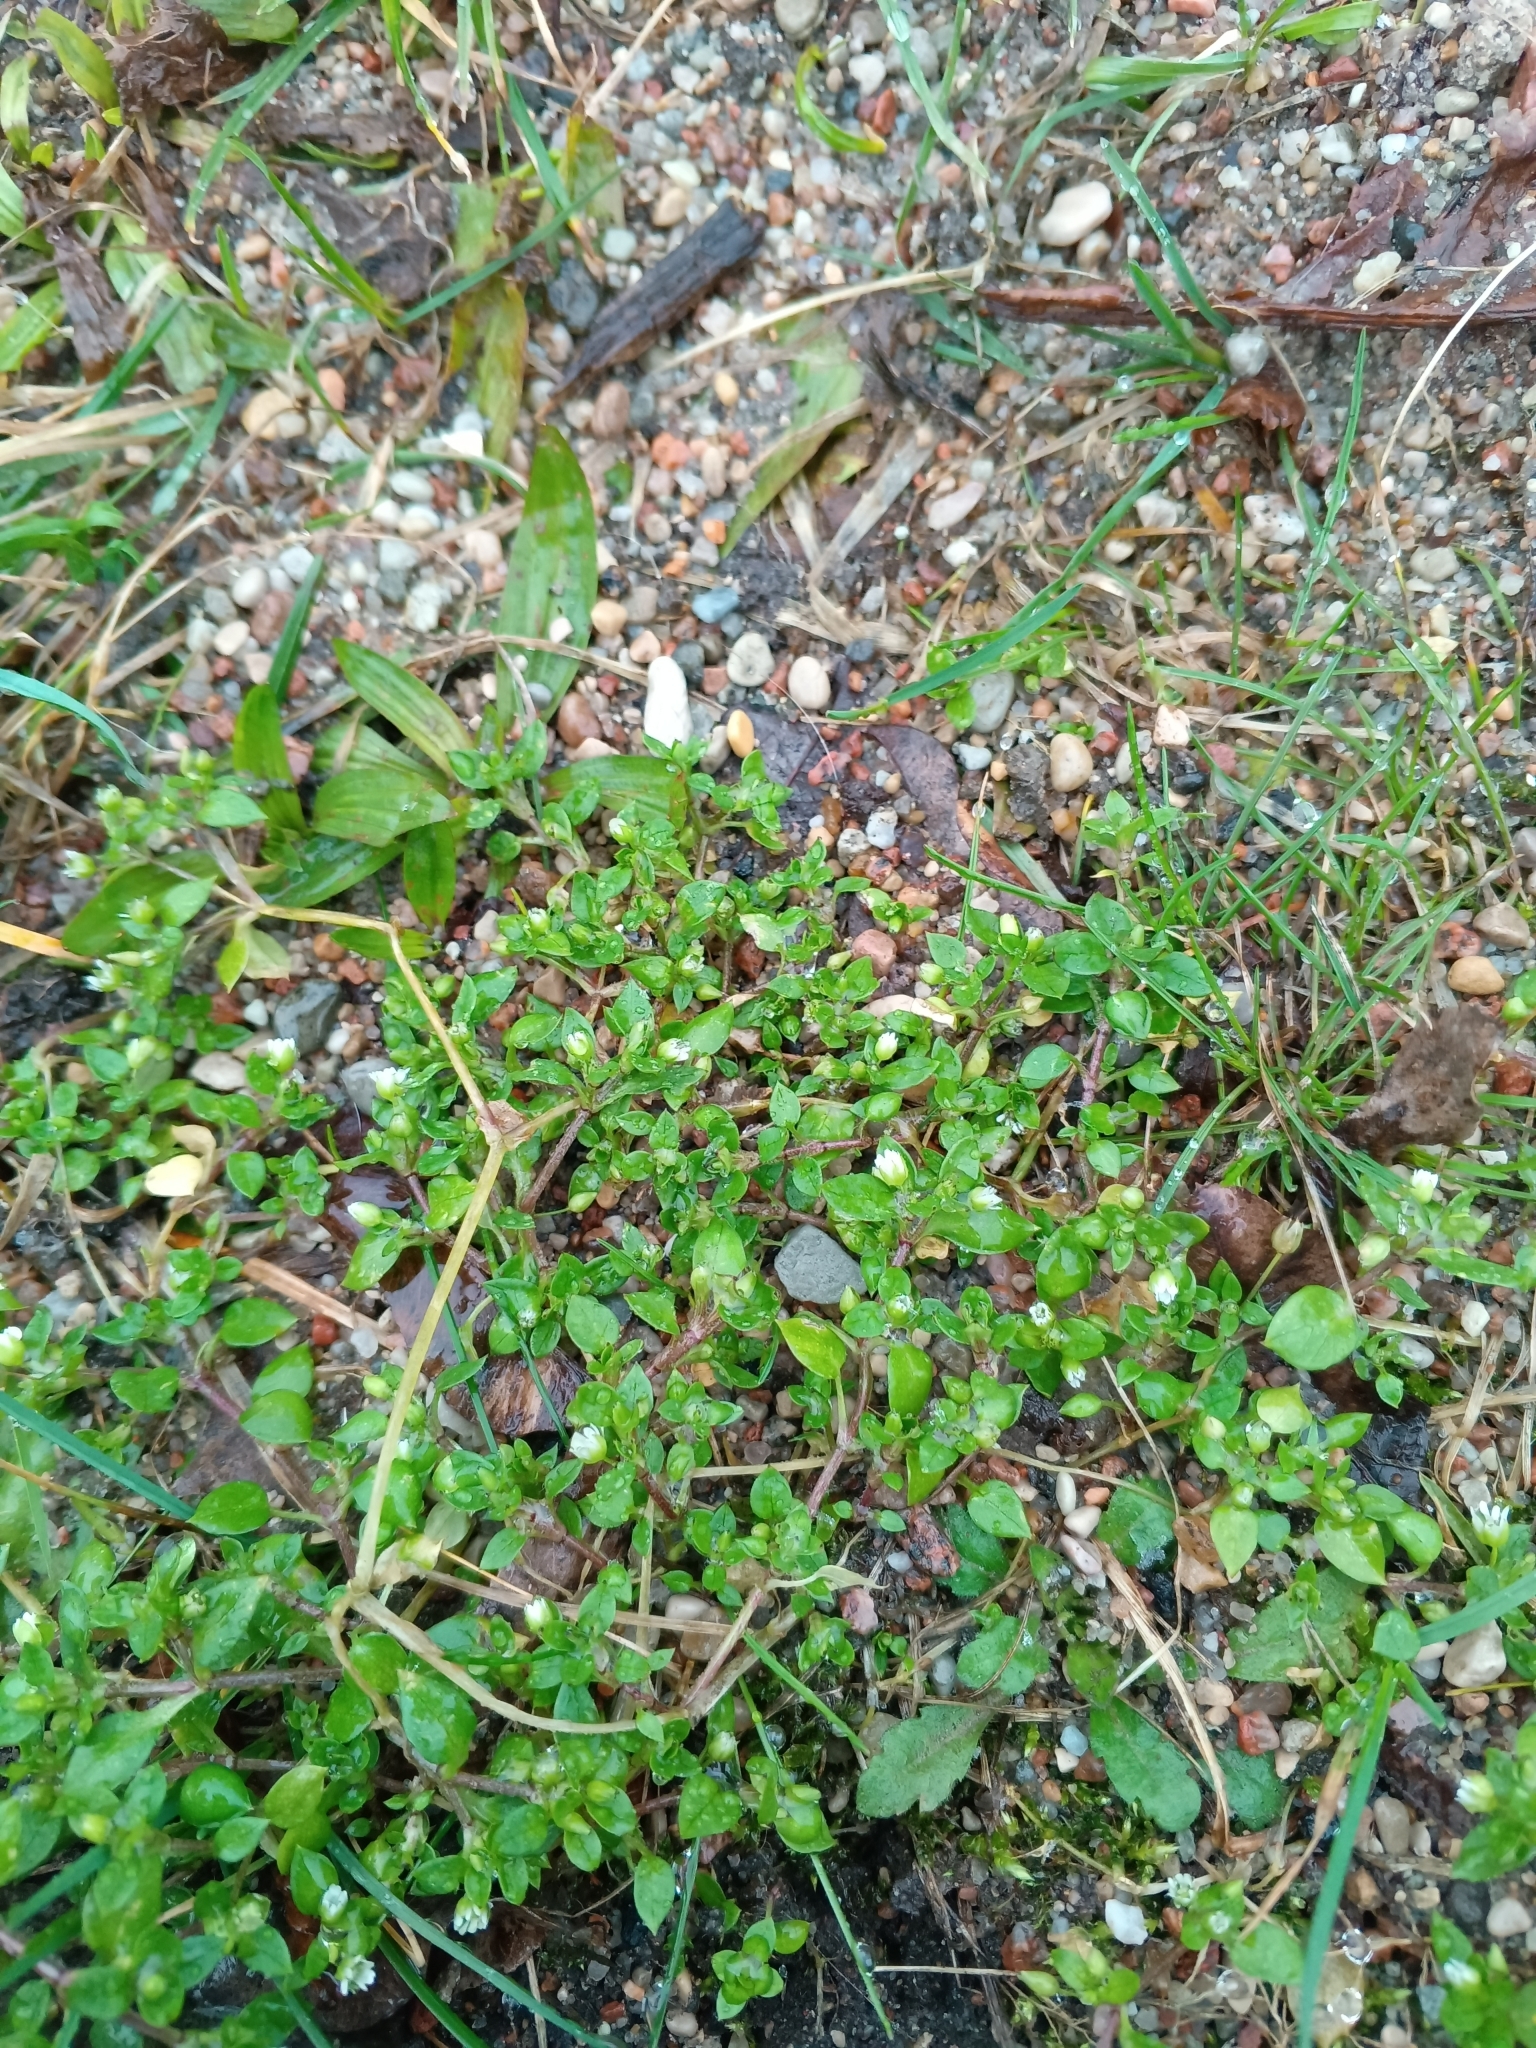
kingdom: Plantae
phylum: Tracheophyta
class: Magnoliopsida
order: Caryophyllales
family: Caryophyllaceae
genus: Stellaria
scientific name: Stellaria media
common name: Common chickweed
